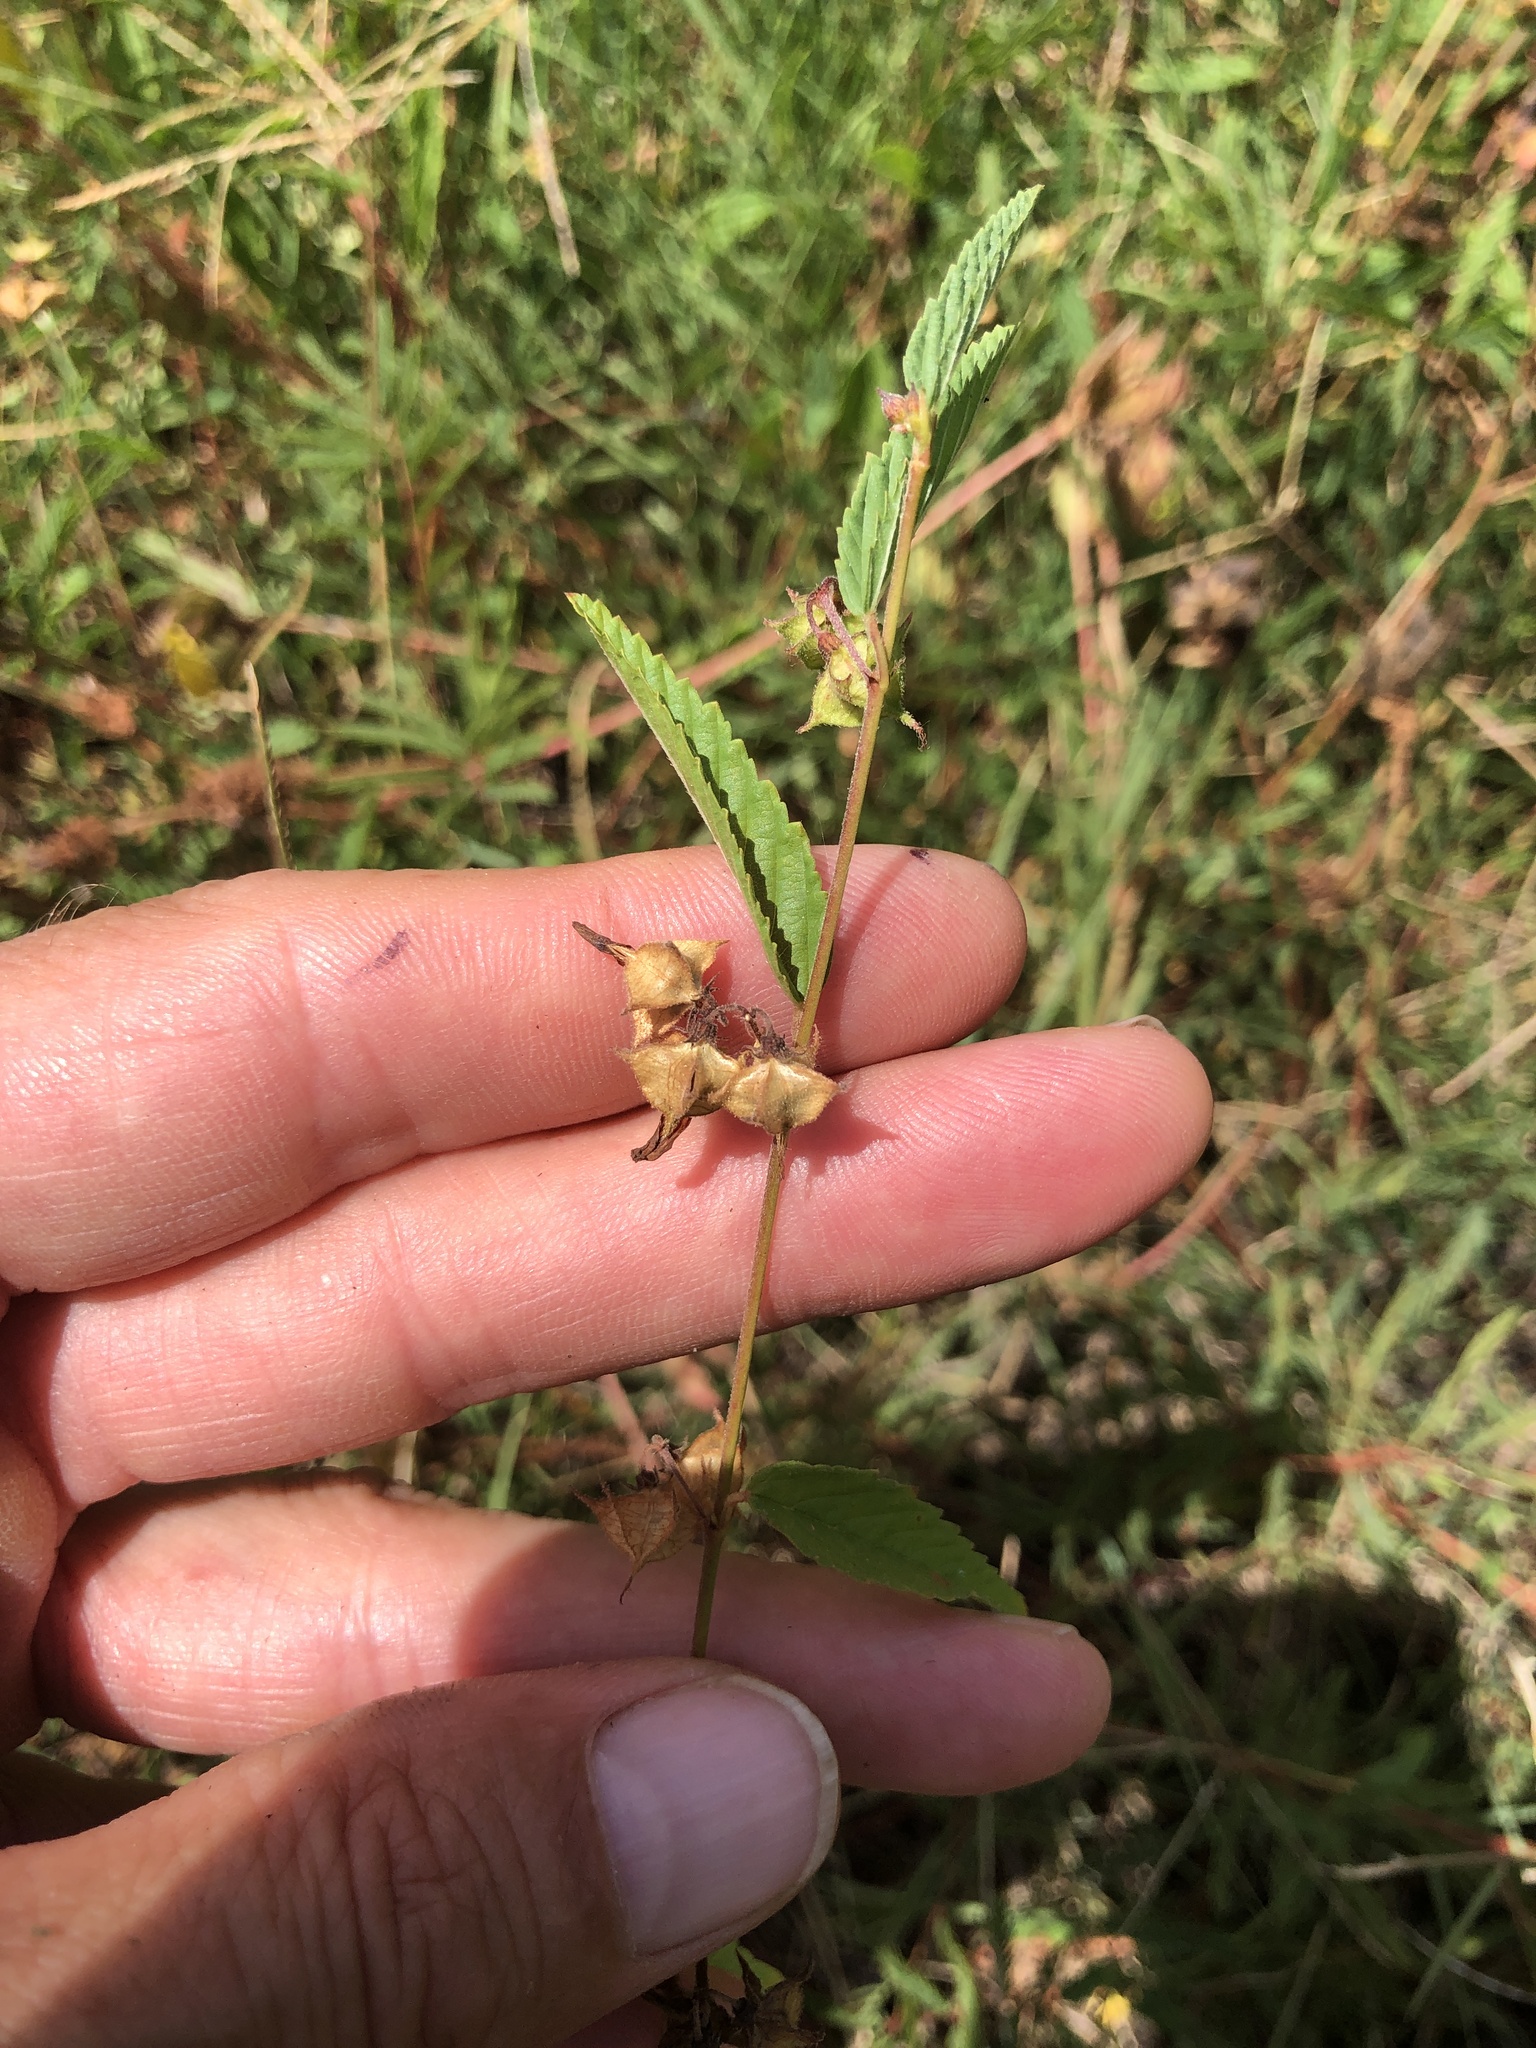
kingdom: Plantae
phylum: Tracheophyta
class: Magnoliopsida
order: Malvales
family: Malvaceae
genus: Melochia
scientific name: Melochia pyramidata
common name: Pyramidflower
